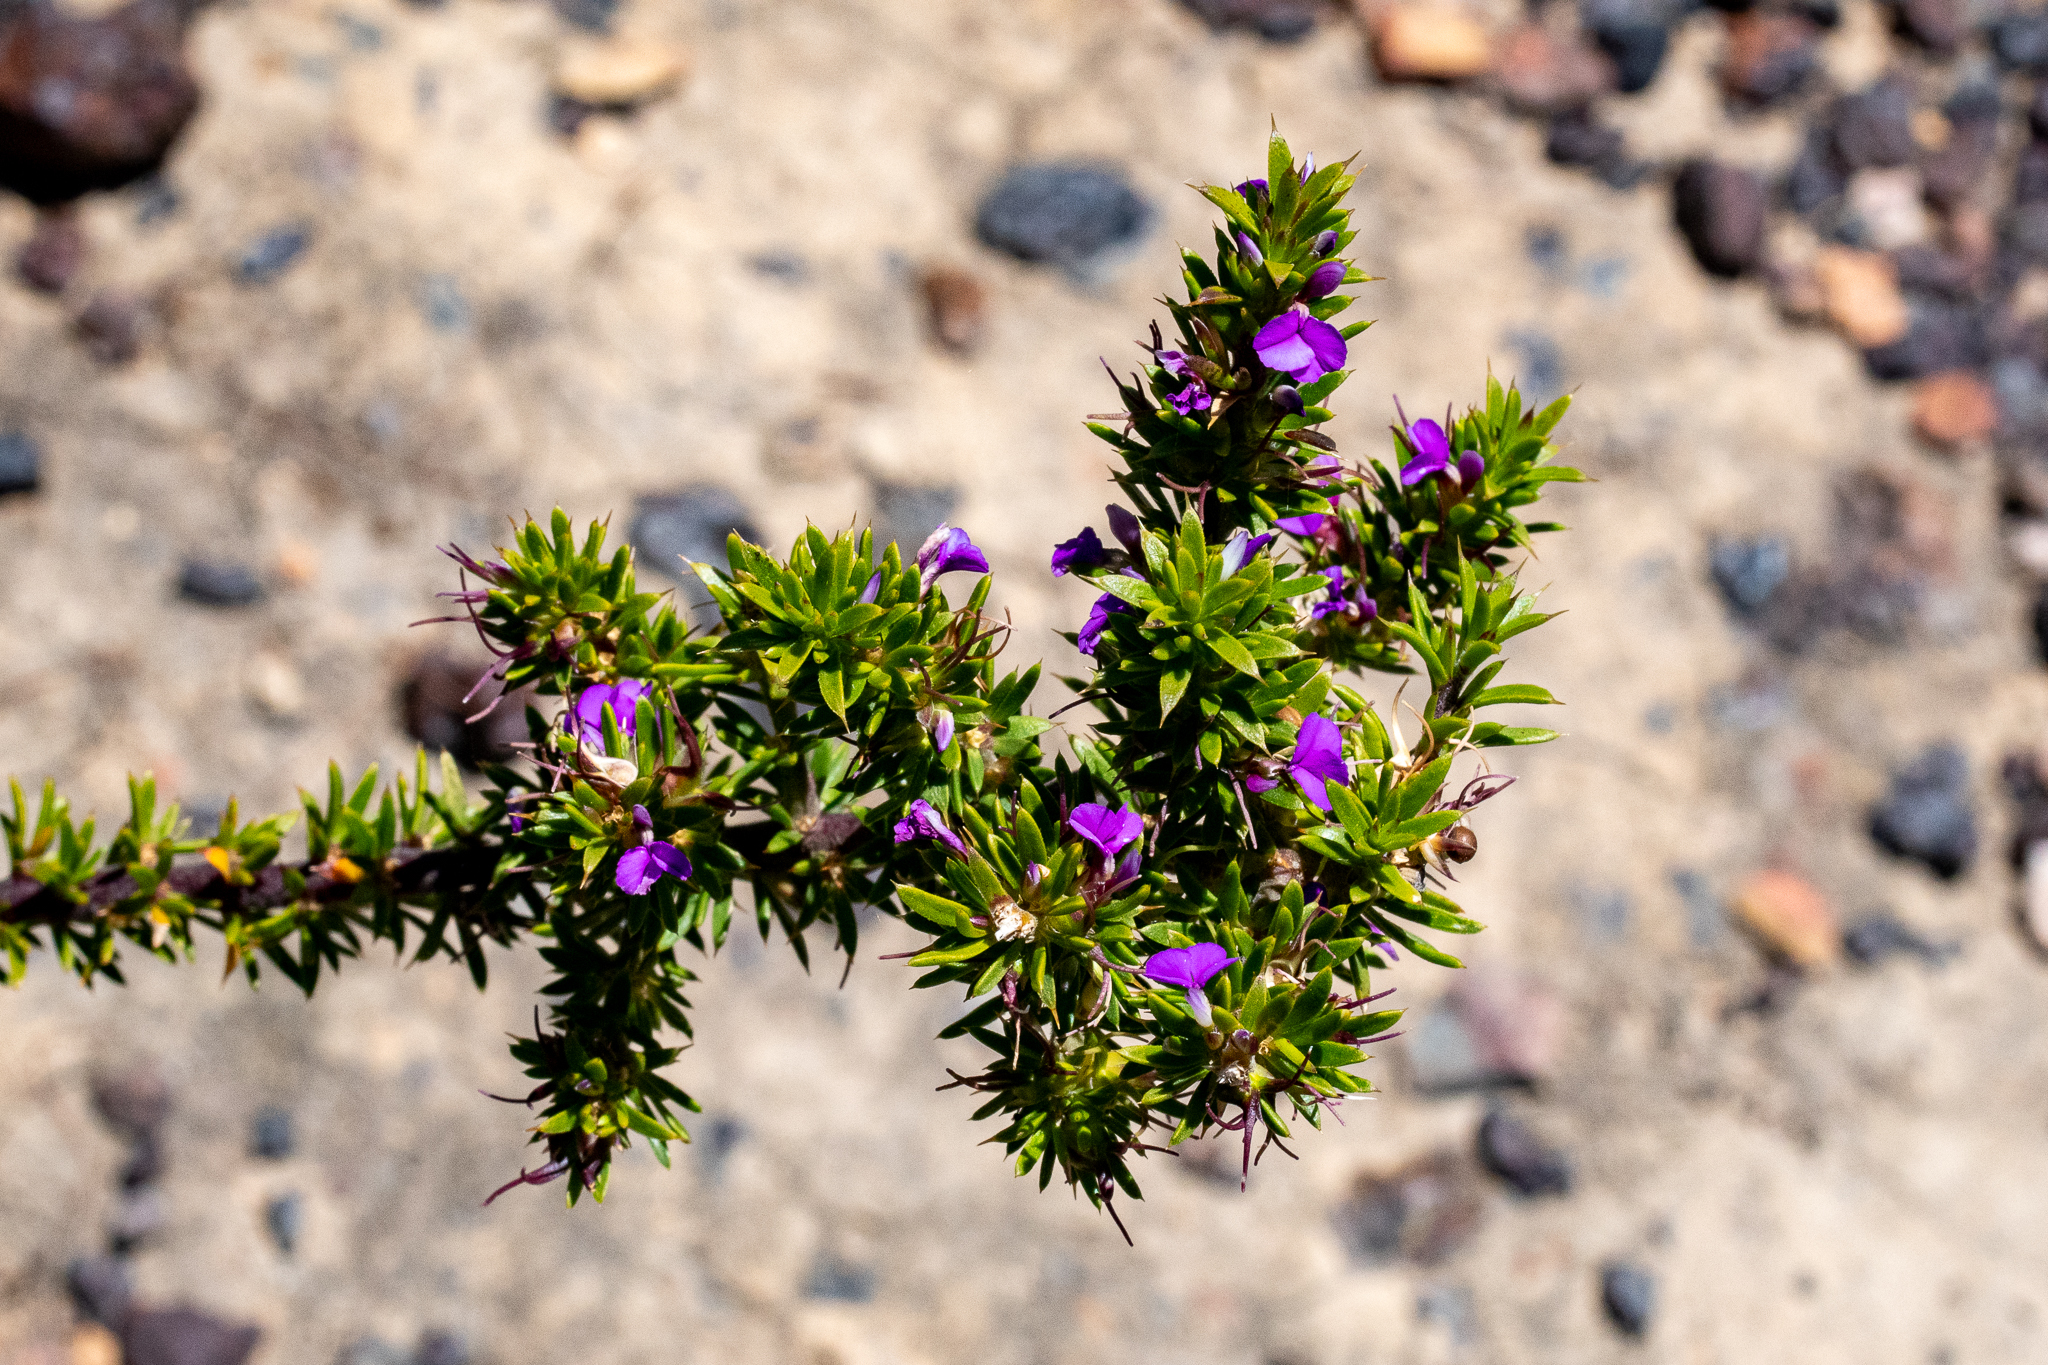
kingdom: Plantae
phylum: Tracheophyta
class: Magnoliopsida
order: Fabales
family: Polygalaceae
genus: Muraltia
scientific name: Muraltia heisteria
